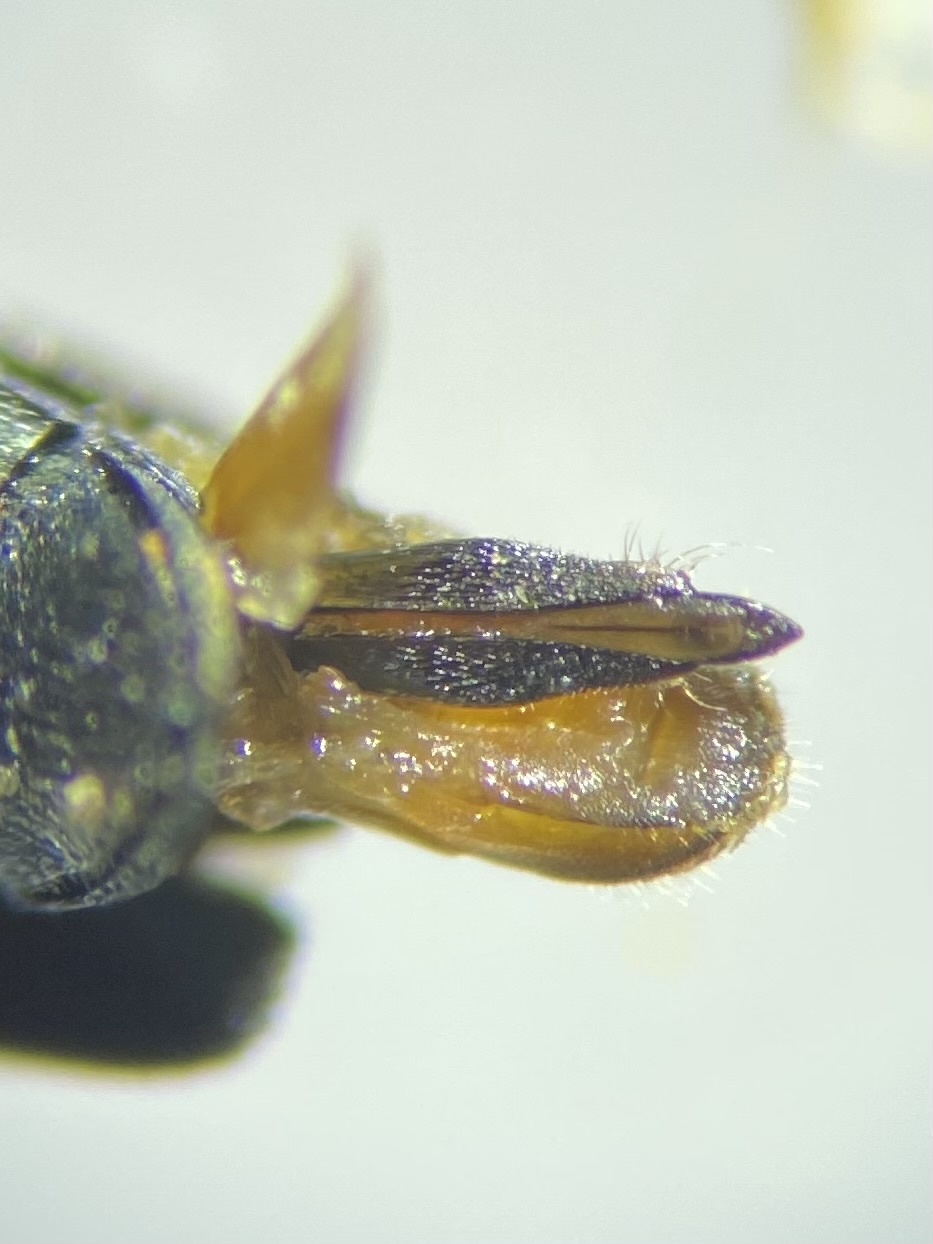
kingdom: Animalia
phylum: Arthropoda
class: Insecta
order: Coleoptera
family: Buprestidae
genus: Agrilus
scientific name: Agrilus otiosus
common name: Hickory agrilus
